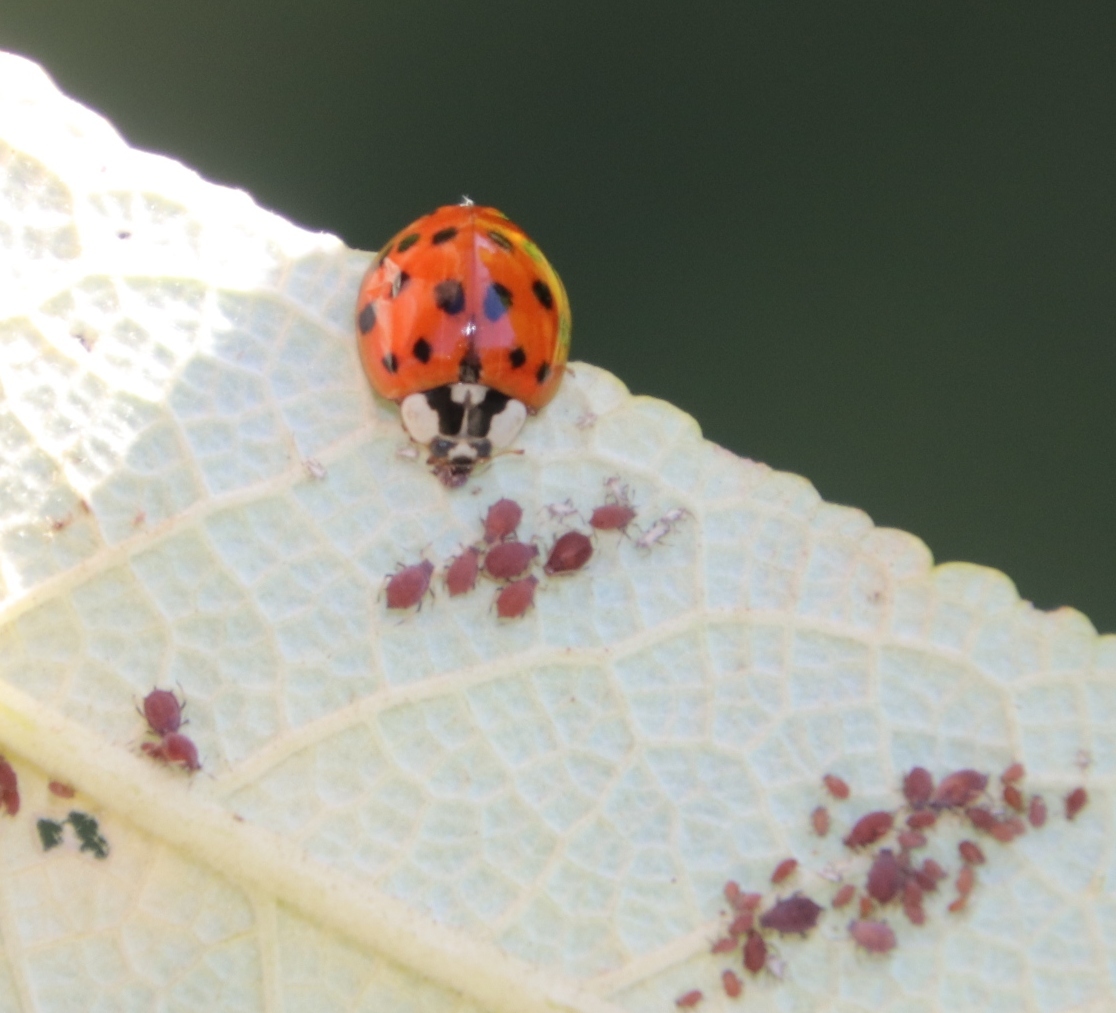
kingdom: Animalia
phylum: Arthropoda
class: Insecta
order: Coleoptera
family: Coccinellidae
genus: Harmonia
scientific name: Harmonia axyridis
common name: Harlequin ladybird
